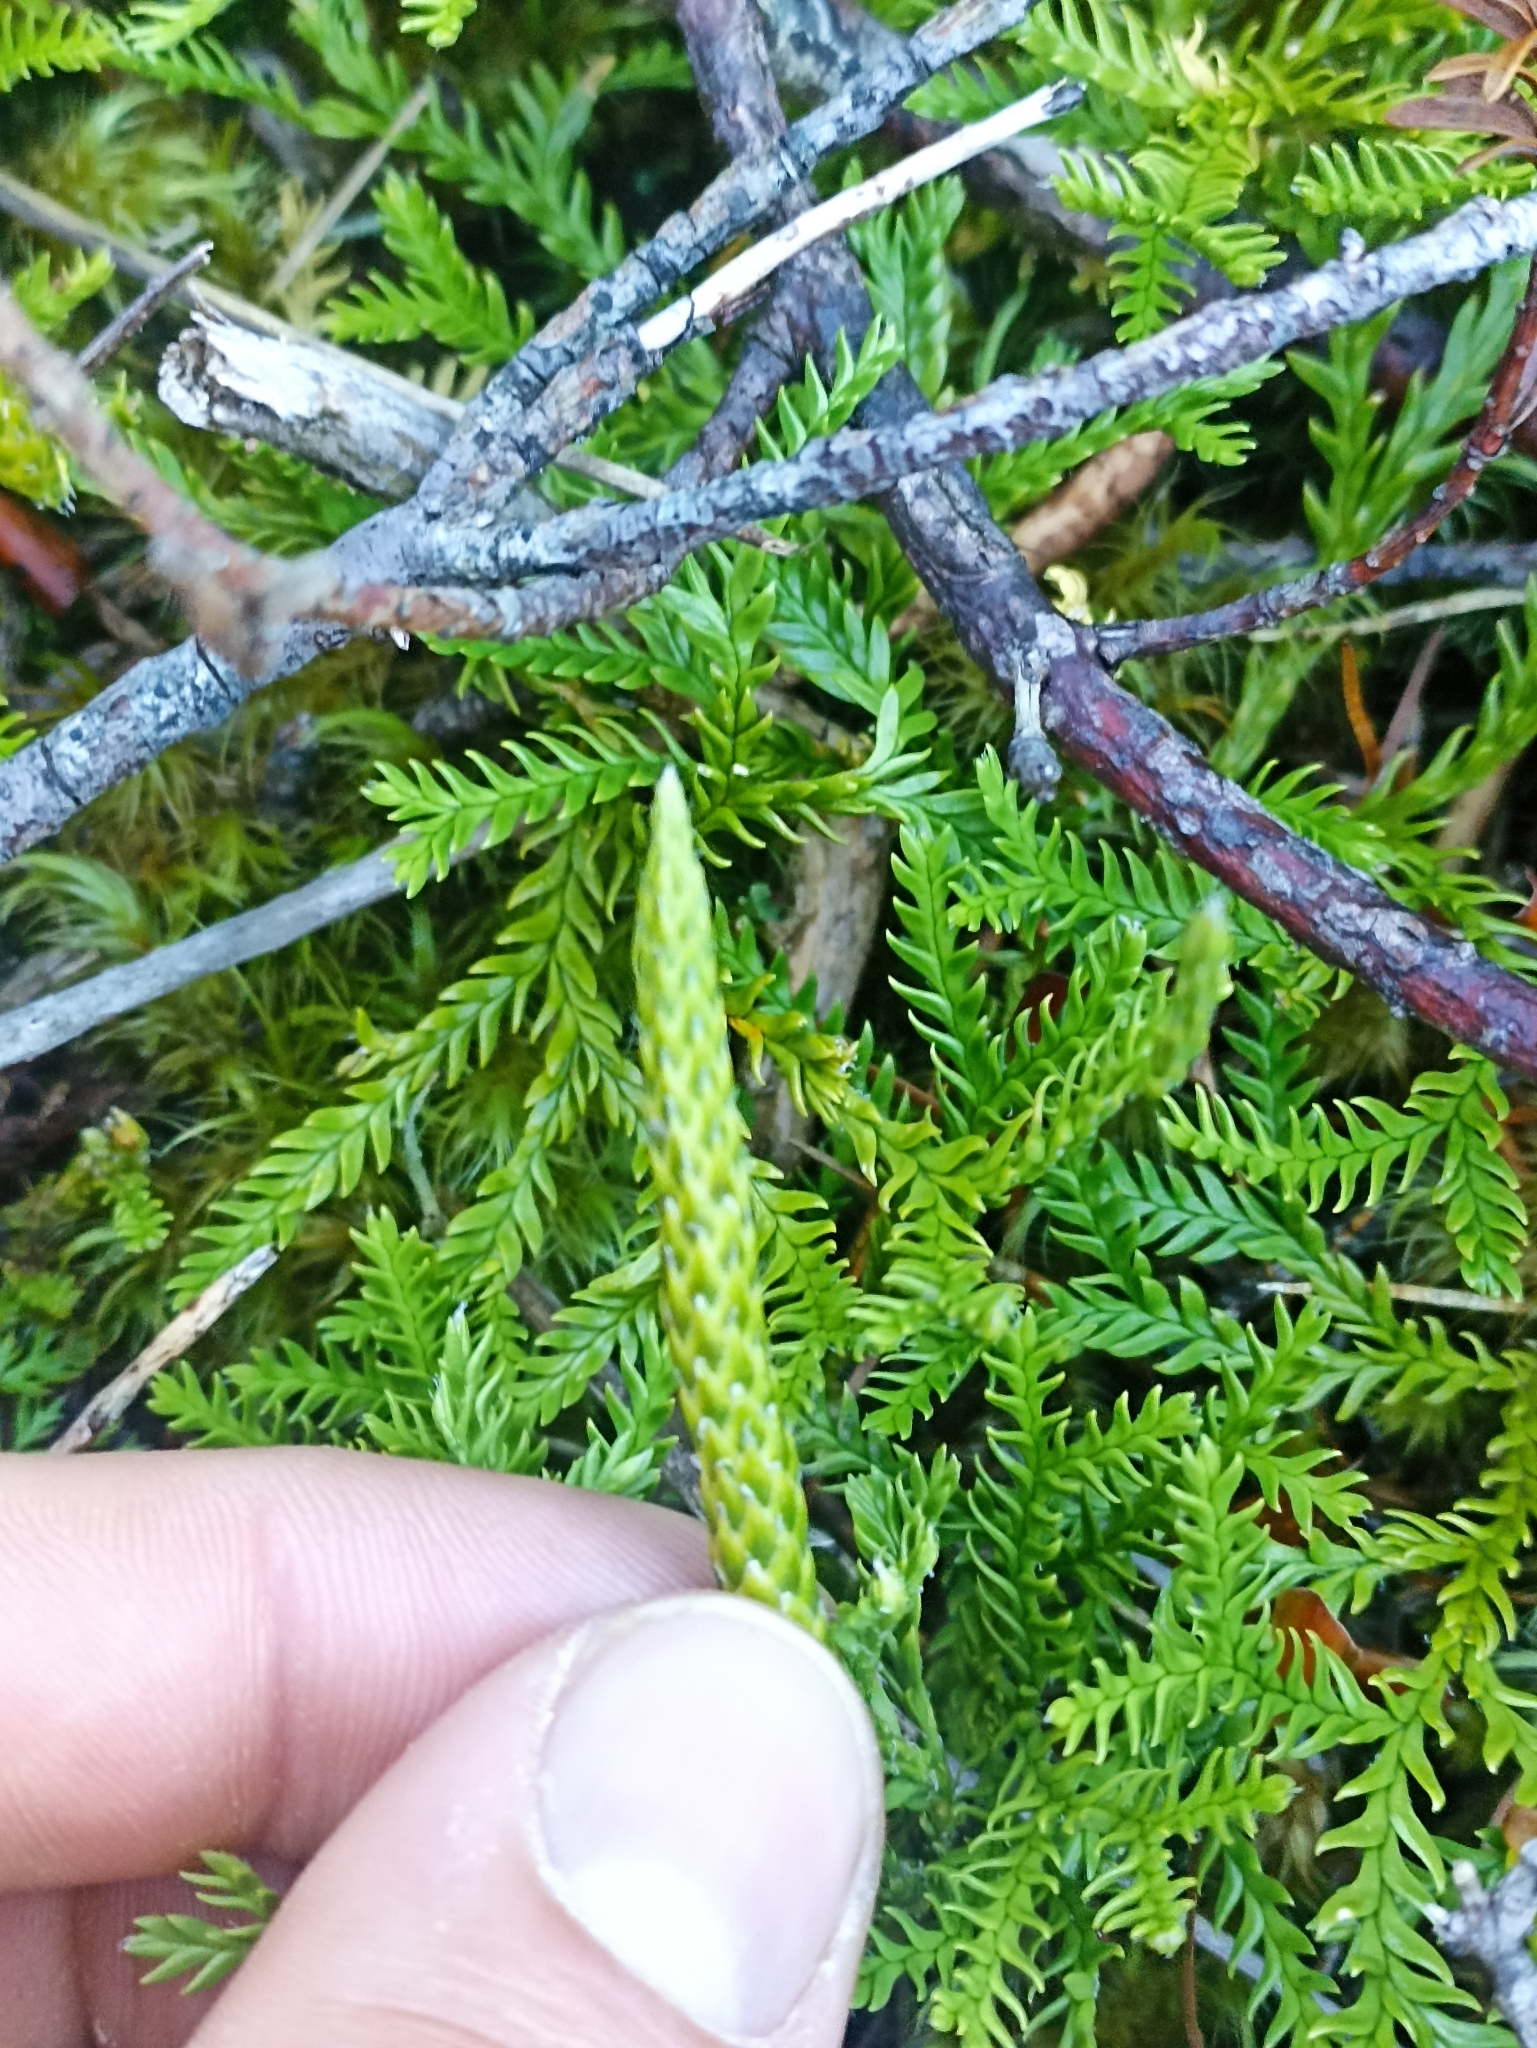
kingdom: Plantae
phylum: Tracheophyta
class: Lycopodiopsida
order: Lycopodiales
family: Lycopodiaceae
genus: Diphasium
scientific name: Diphasium scariosum
